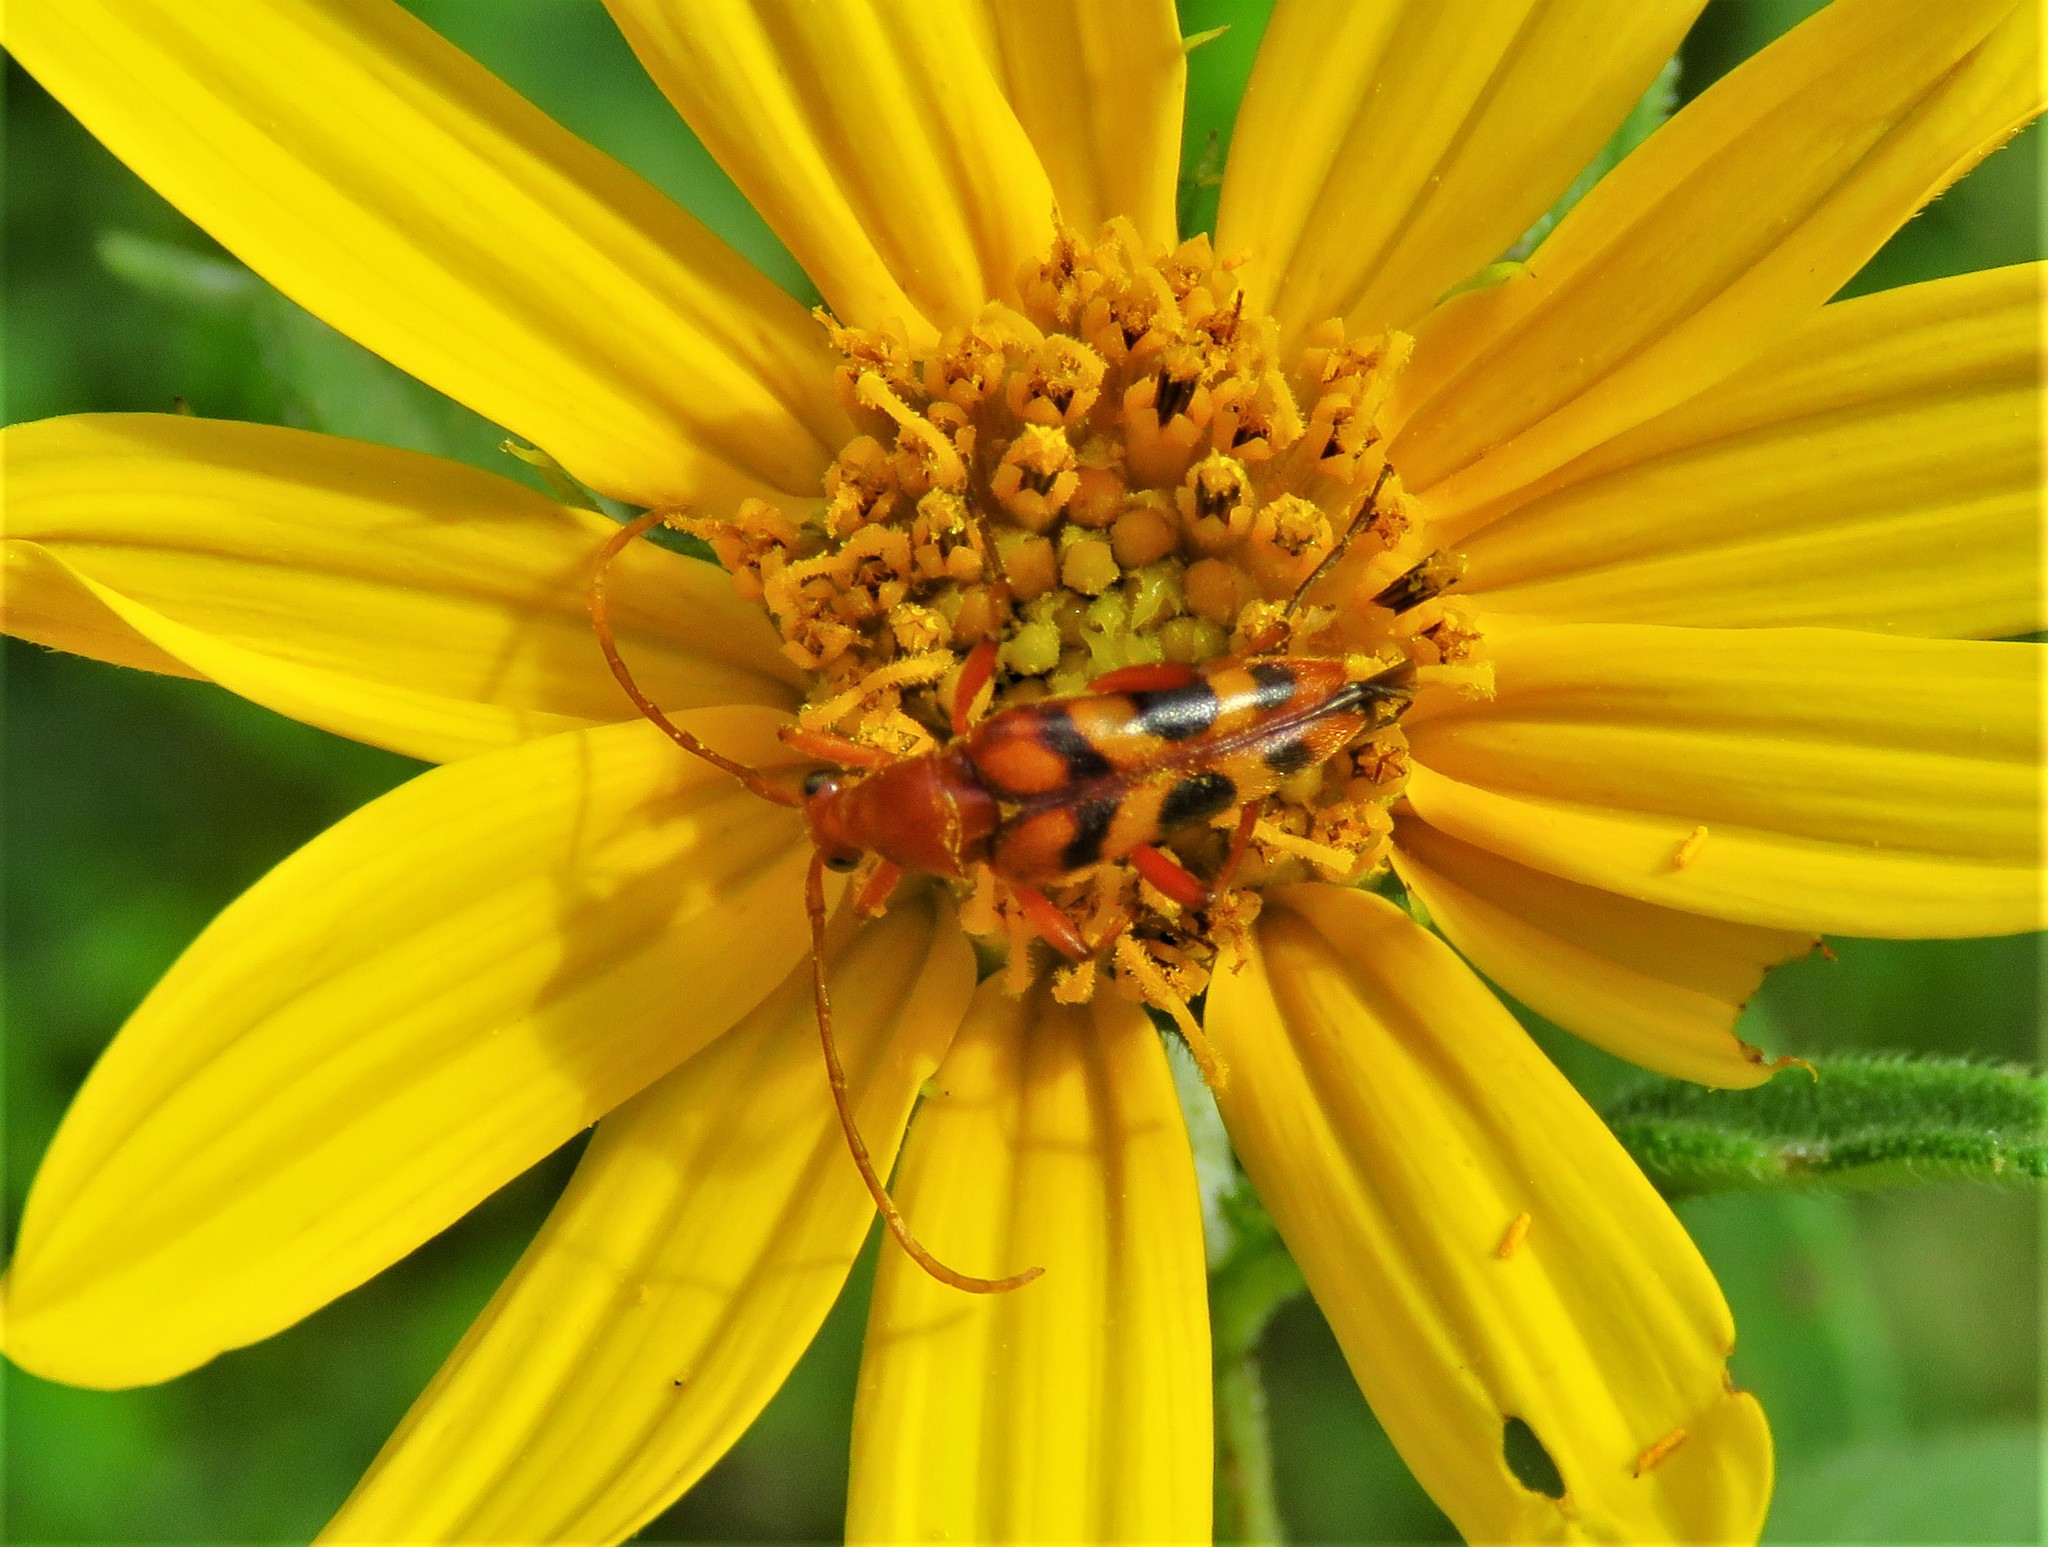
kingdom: Animalia
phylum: Arthropoda
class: Insecta
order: Coleoptera
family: Cerambycidae
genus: Strangalia
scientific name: Strangalia sexnotata
